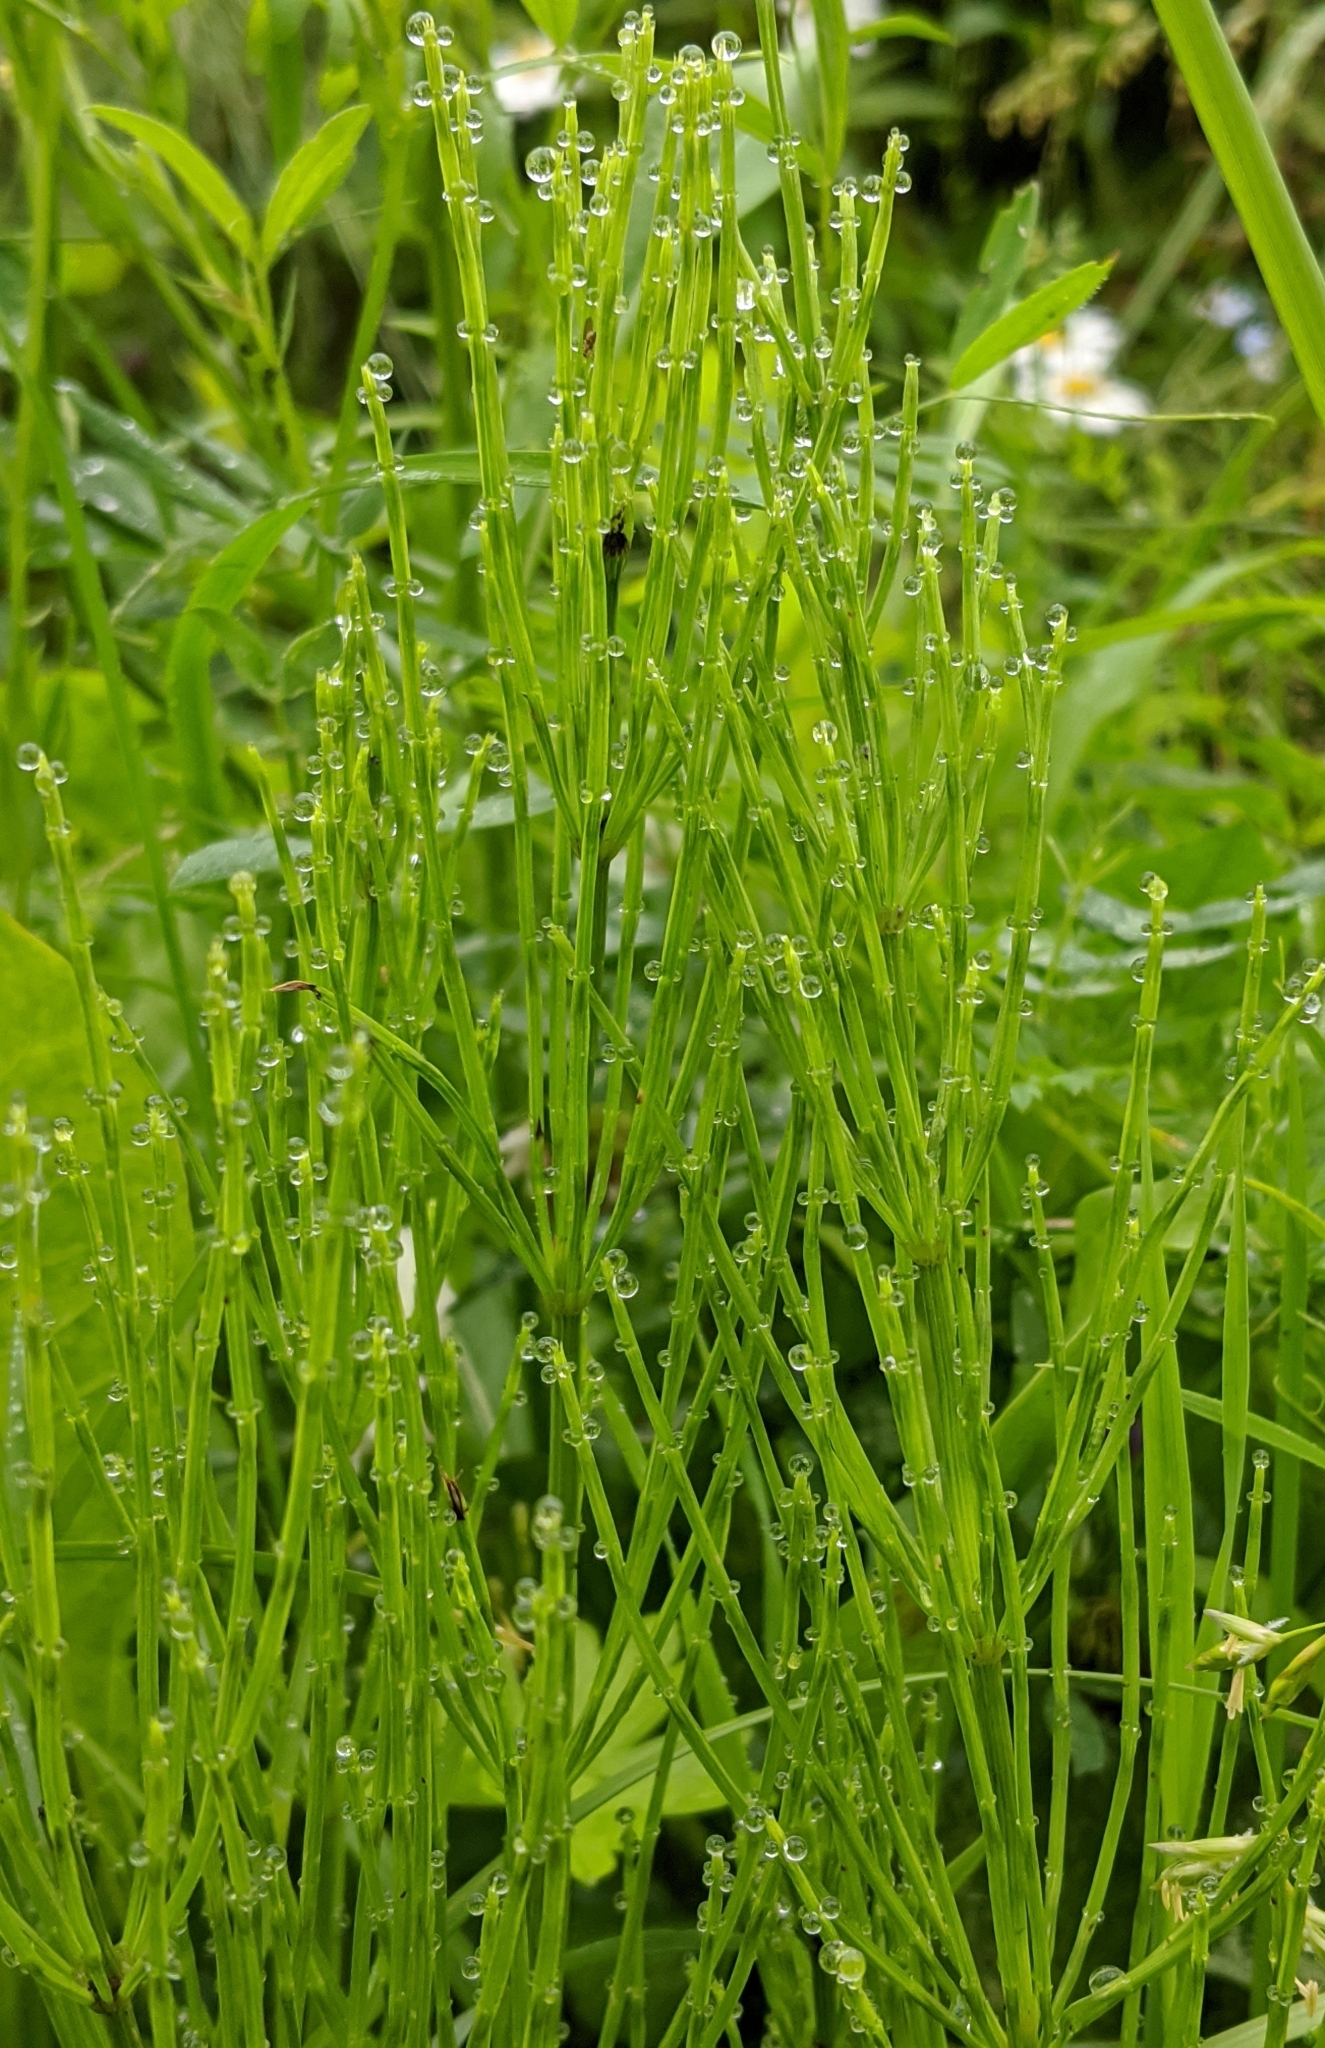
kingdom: Plantae
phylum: Tracheophyta
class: Polypodiopsida
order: Equisetales
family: Equisetaceae
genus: Equisetum
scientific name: Equisetum arvense
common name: Field horsetail
